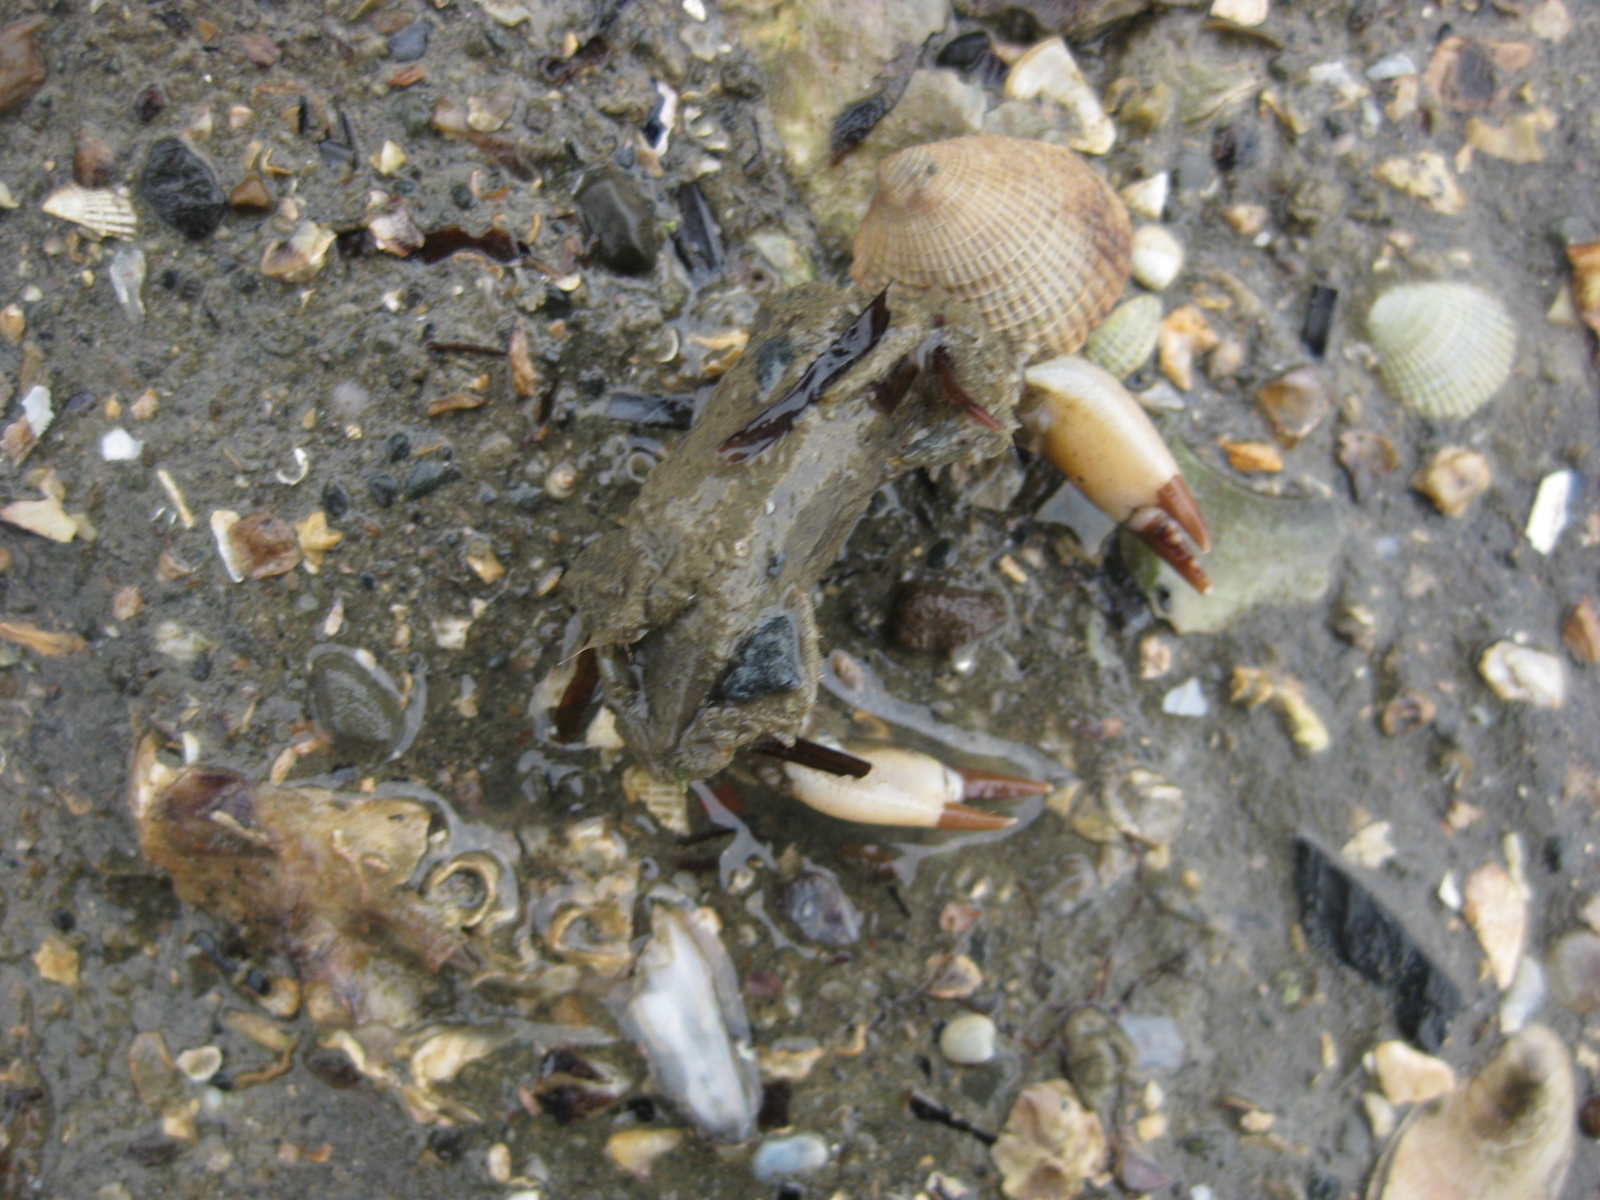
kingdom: Animalia
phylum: Arthropoda
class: Malacostraca
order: Decapoda
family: Pilumnidae
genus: Pilumnopeus
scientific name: Pilumnopeus serratifrons
